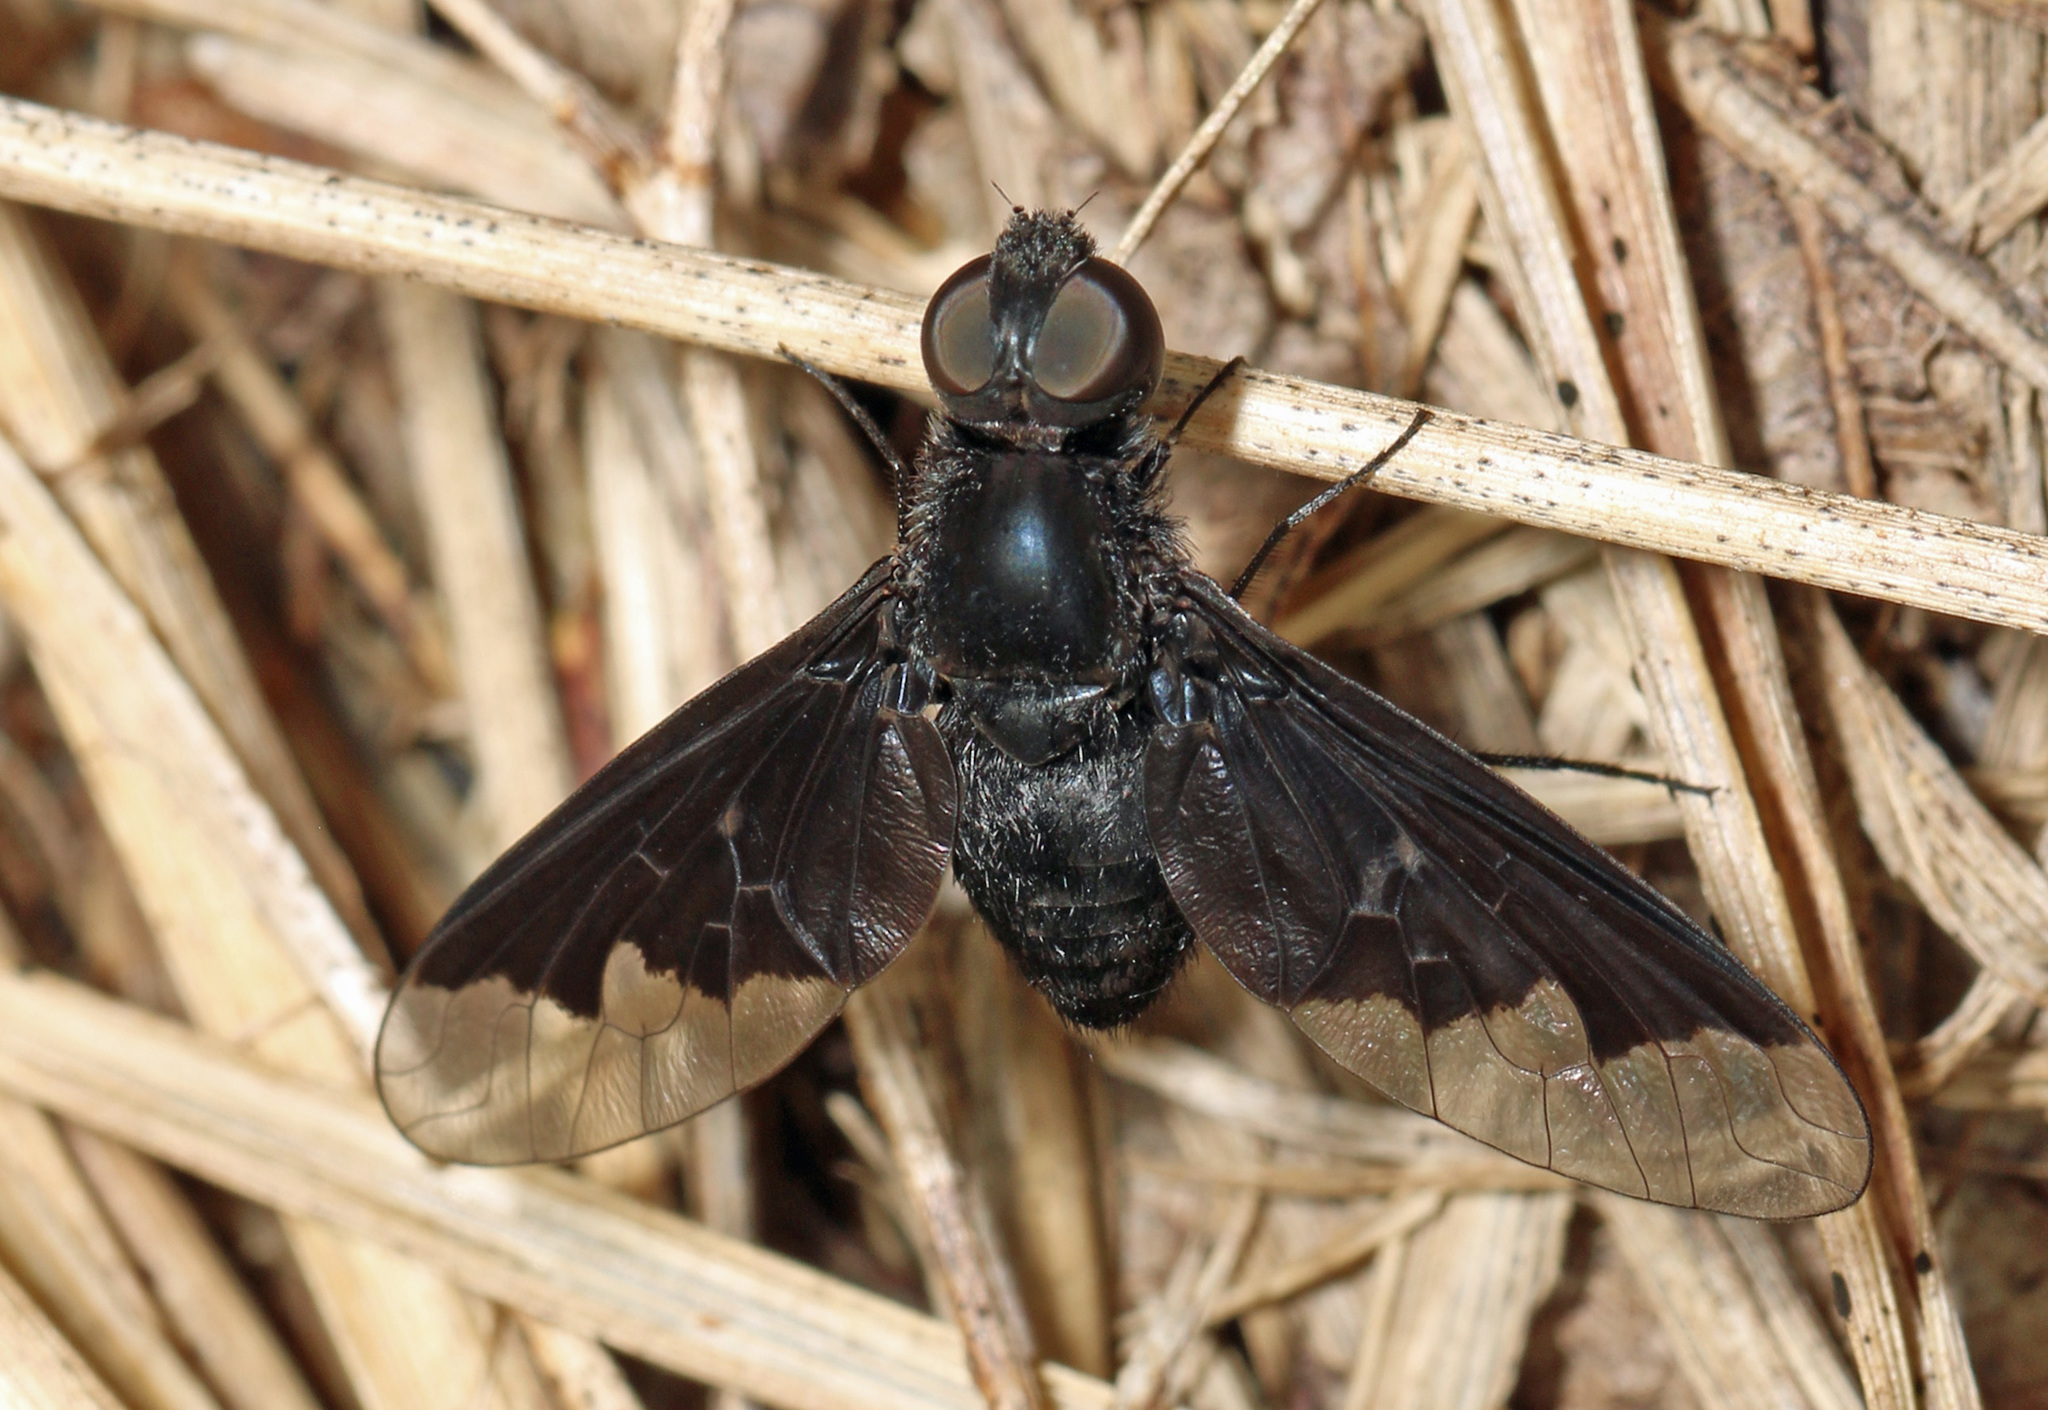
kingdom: Animalia
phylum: Arthropoda
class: Insecta
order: Diptera
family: Bombyliidae
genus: Anthrax
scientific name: Anthrax analis
